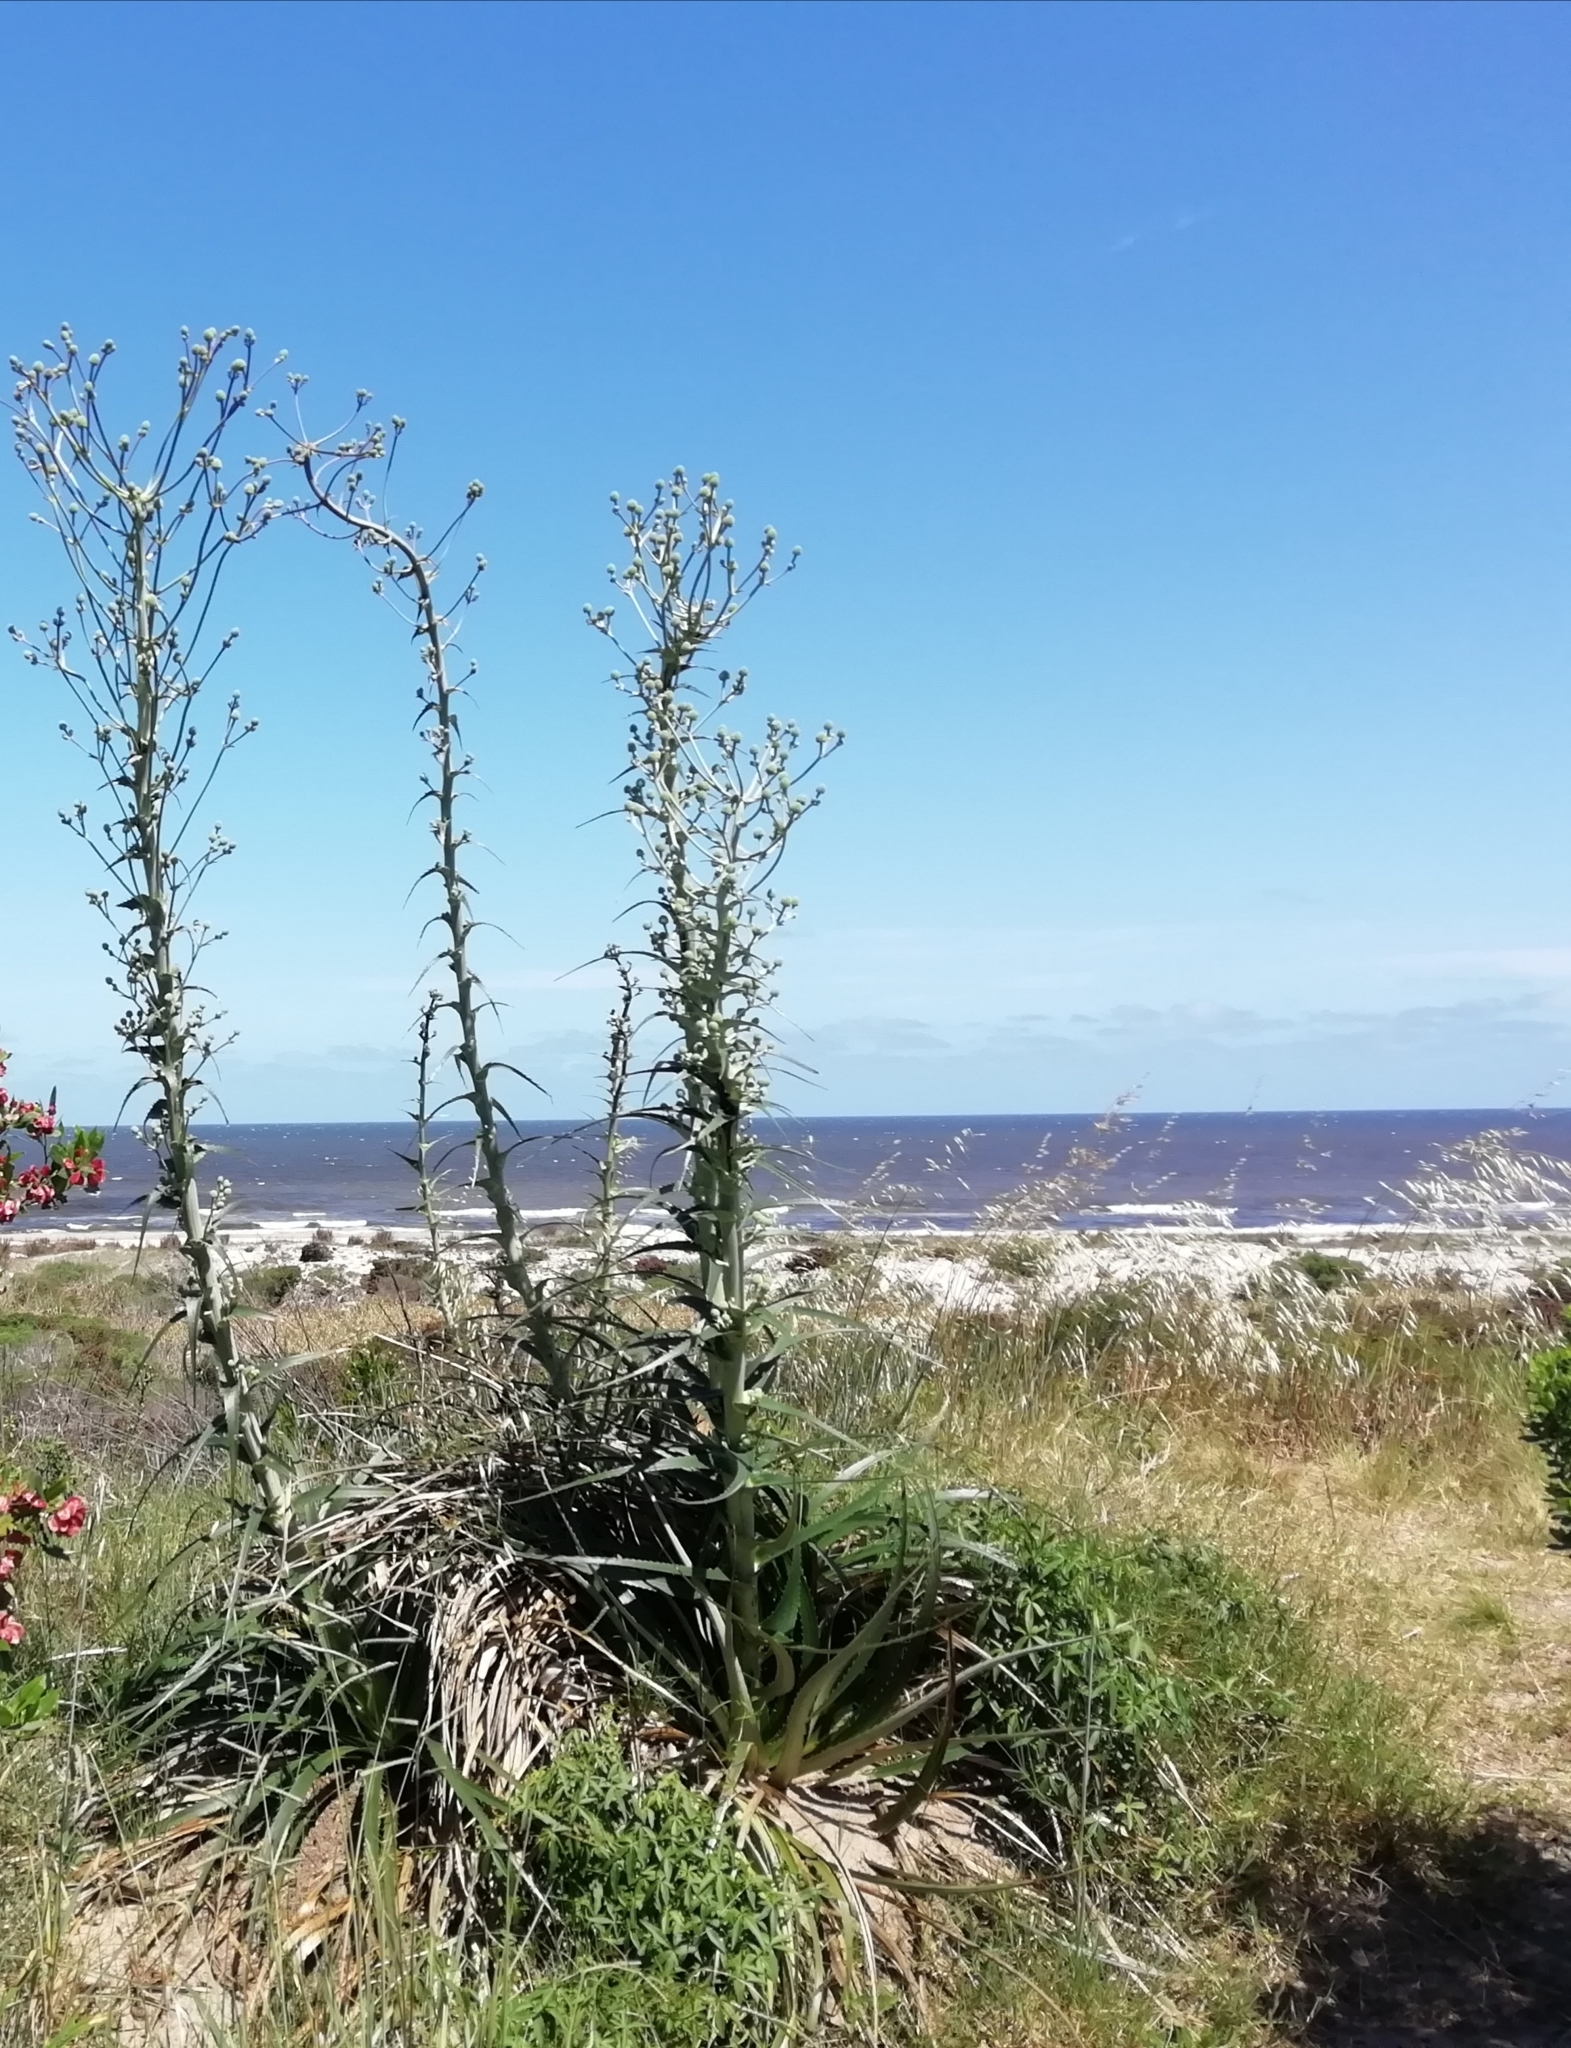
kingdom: Plantae
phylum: Tracheophyta
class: Magnoliopsida
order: Apiales
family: Apiaceae
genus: Eryngium
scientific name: Eryngium horridum
